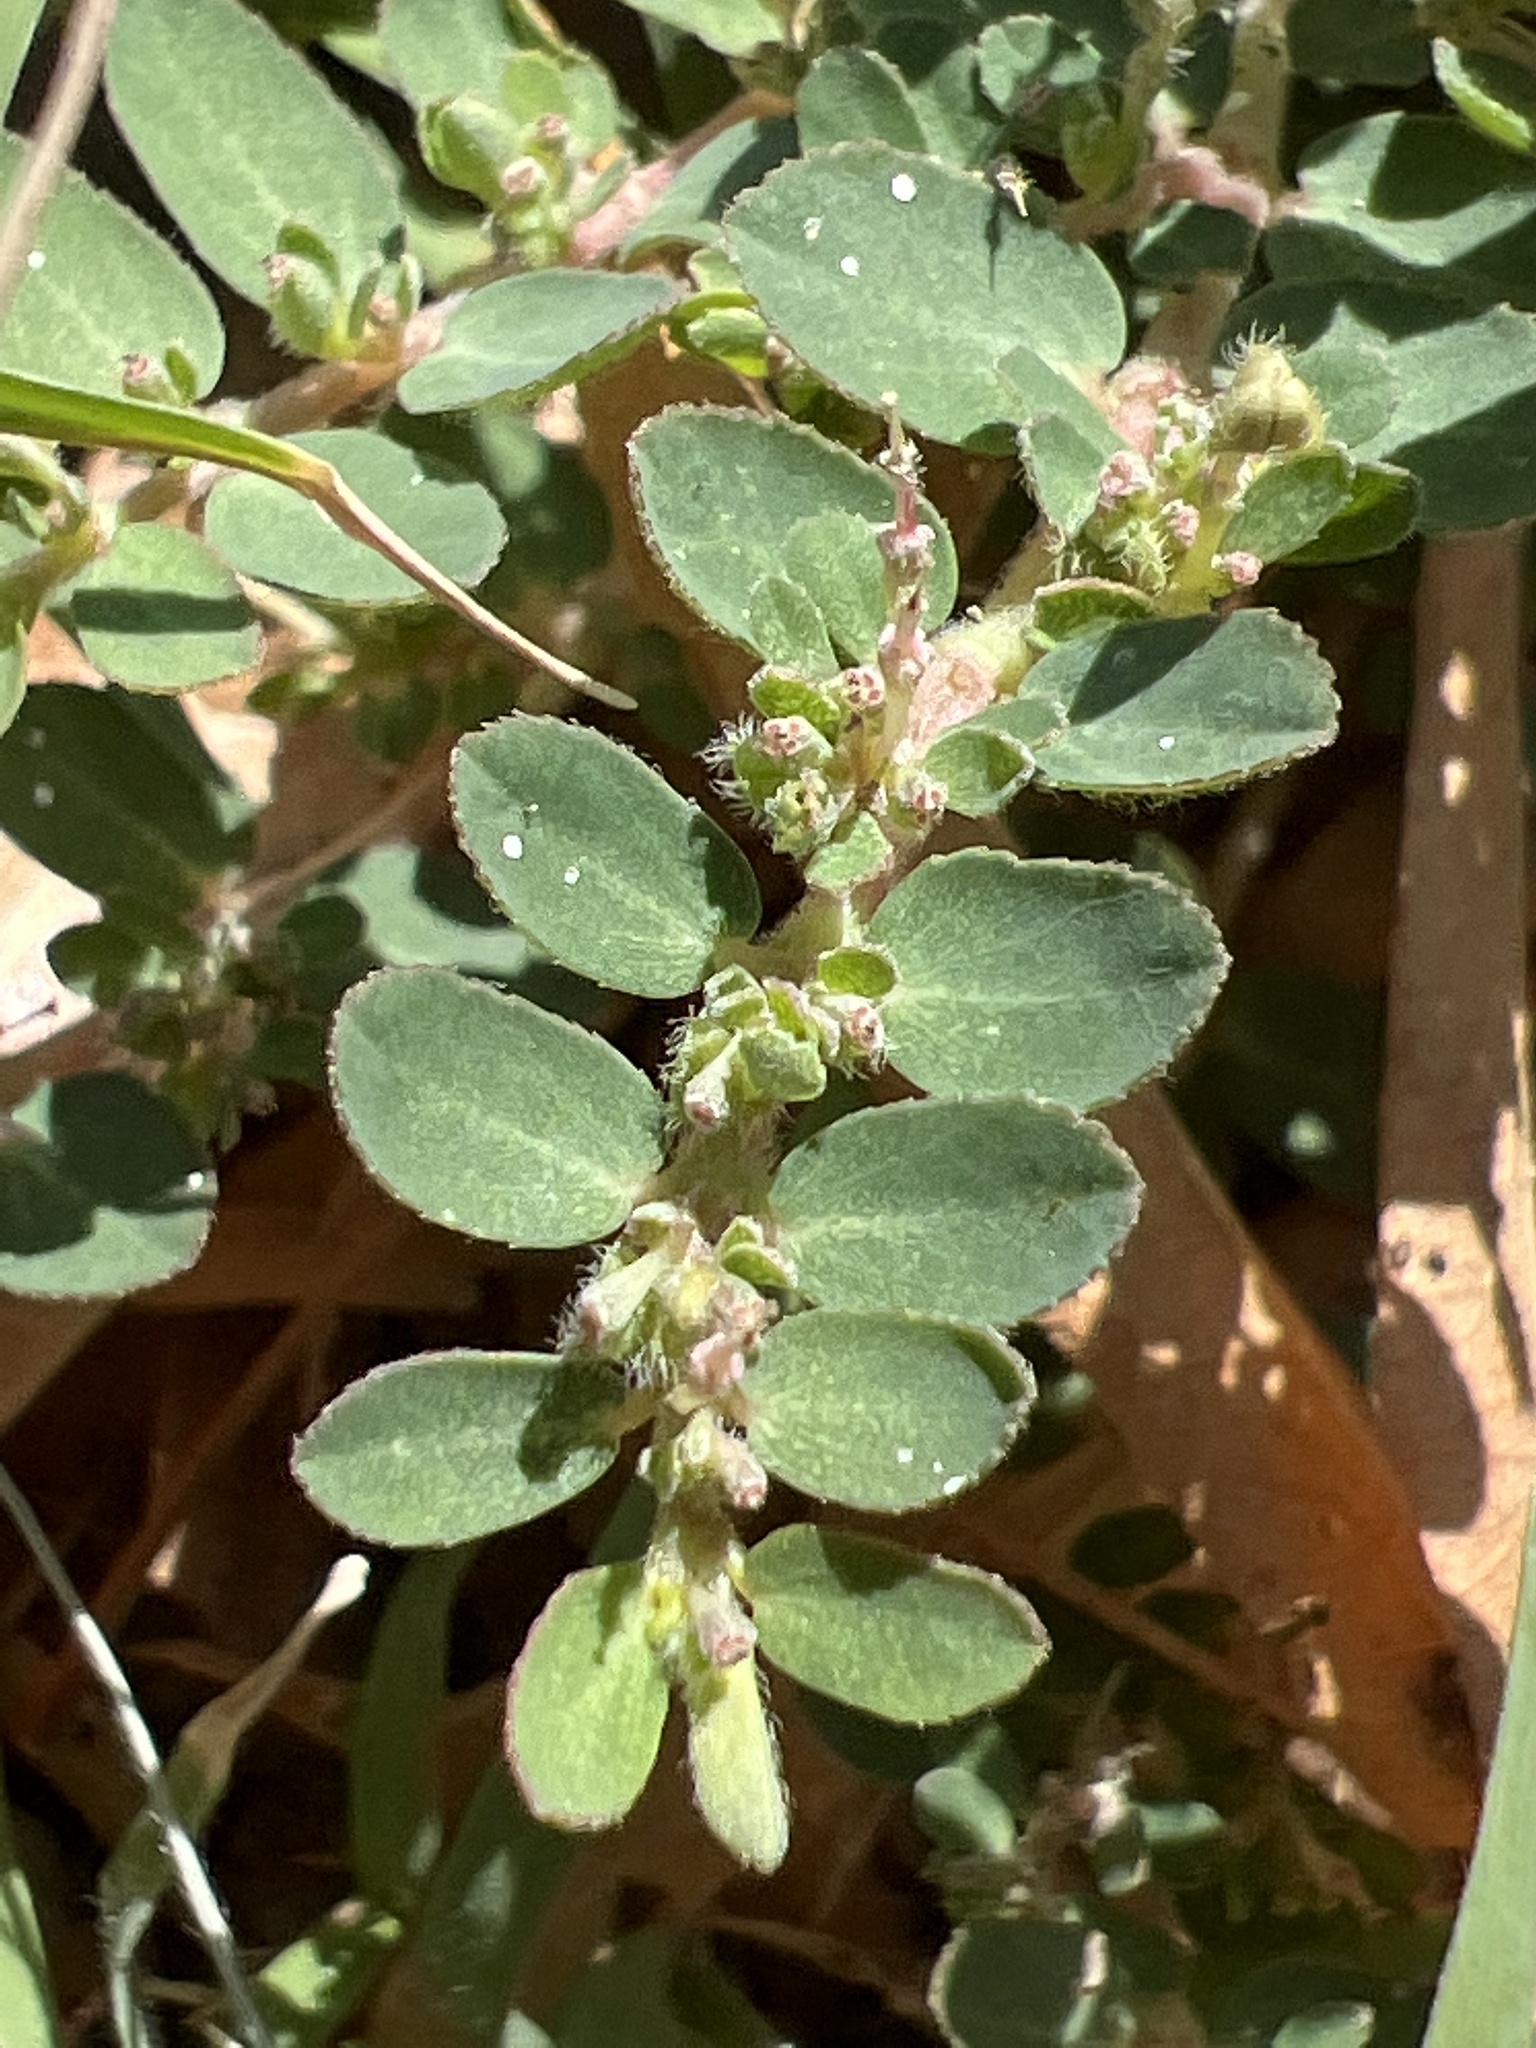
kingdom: Plantae
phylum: Tracheophyta
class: Magnoliopsida
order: Malpighiales
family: Euphorbiaceae
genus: Euphorbia
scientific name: Euphorbia prostrata
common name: Prostrate sandmat
